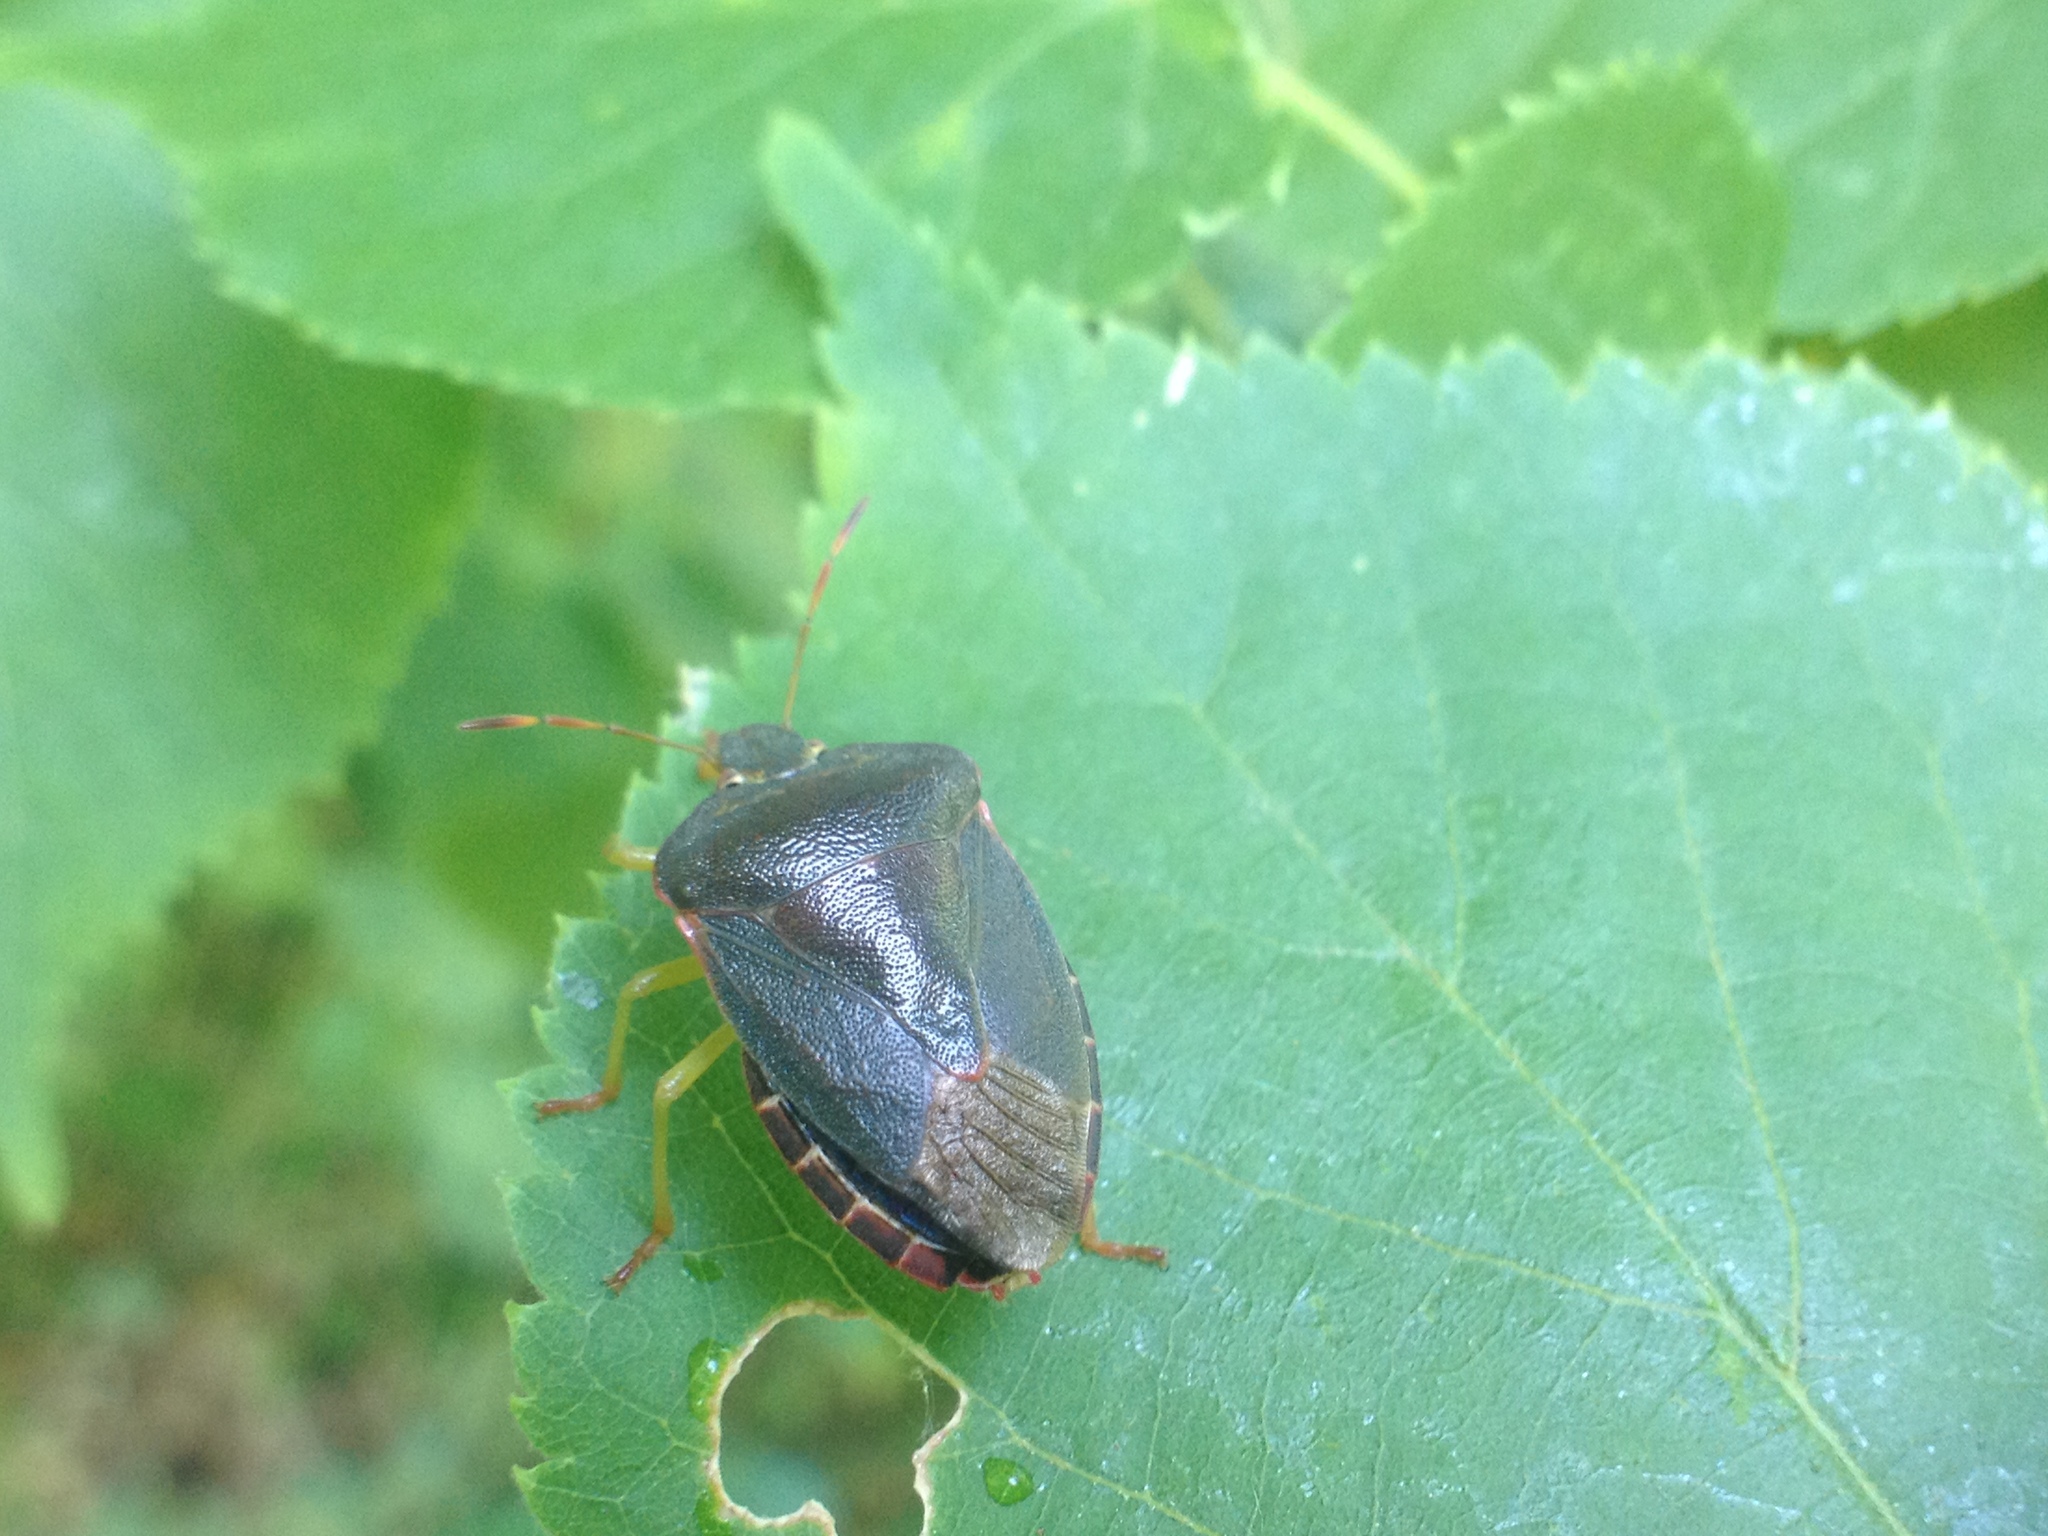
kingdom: Animalia
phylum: Arthropoda
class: Insecta
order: Hemiptera
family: Pentatomidae
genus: Palomena
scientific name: Palomena prasina
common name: Green shieldbug
